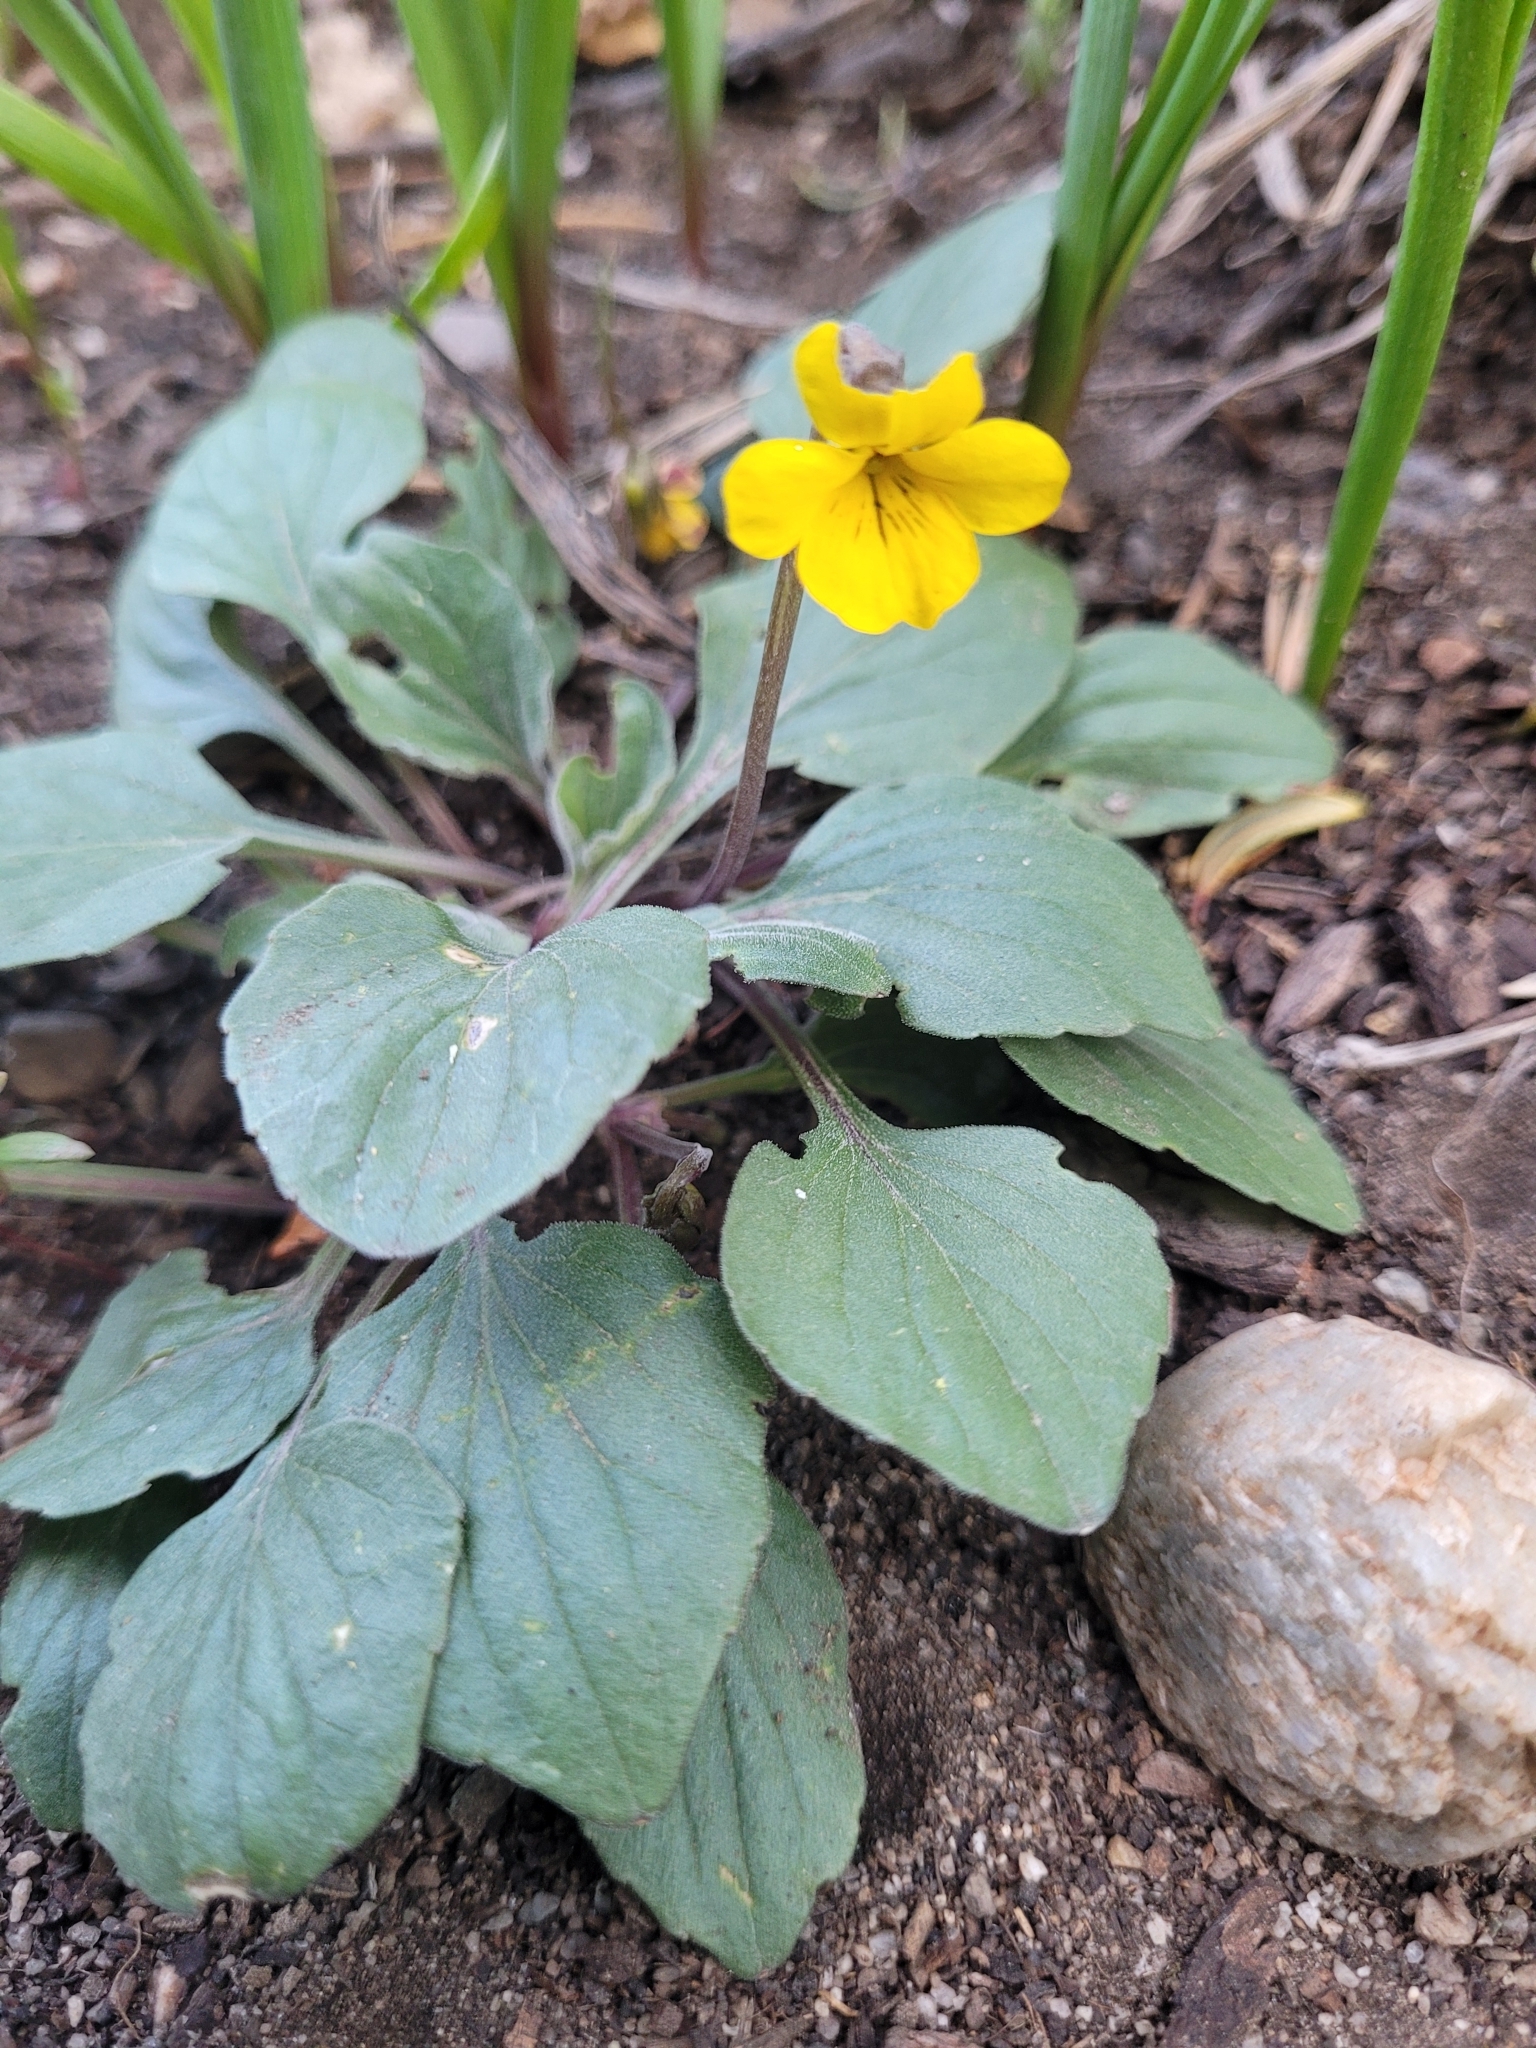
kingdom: Plantae
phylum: Tracheophyta
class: Magnoliopsida
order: Malpighiales
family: Violaceae
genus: Viola
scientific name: Viola purpurea
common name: Pine violet
